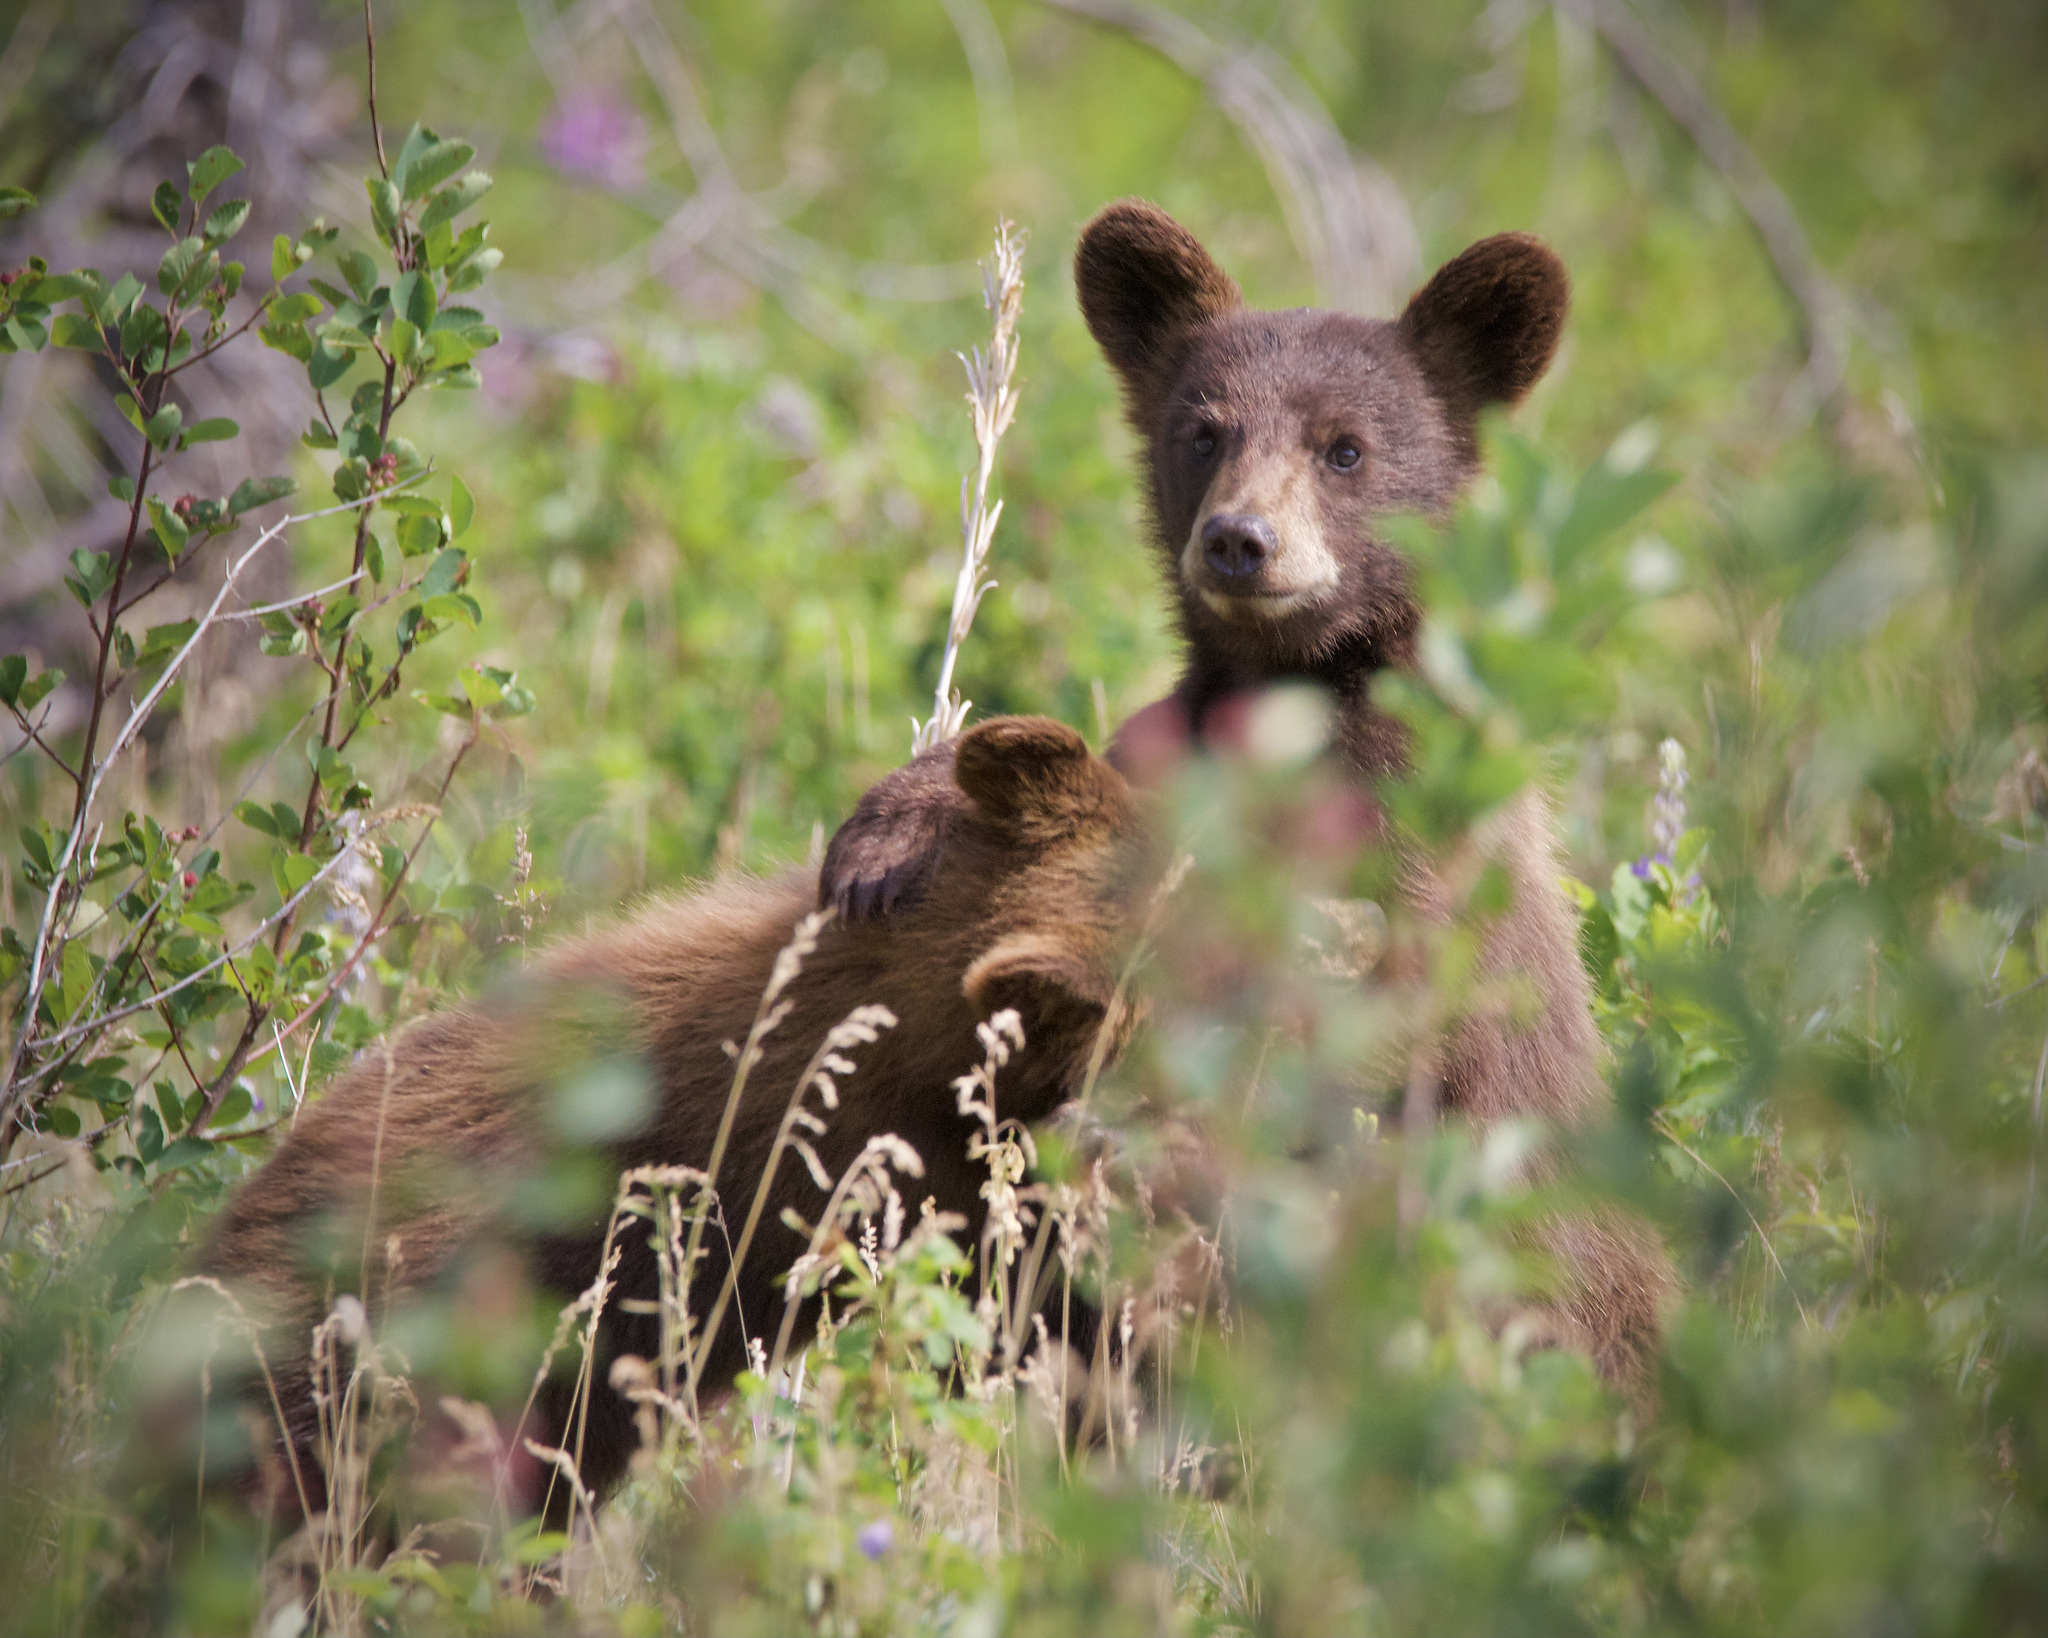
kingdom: Animalia
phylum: Chordata
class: Mammalia
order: Carnivora
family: Ursidae
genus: Ursus
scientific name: Ursus americanus
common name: American black bear
